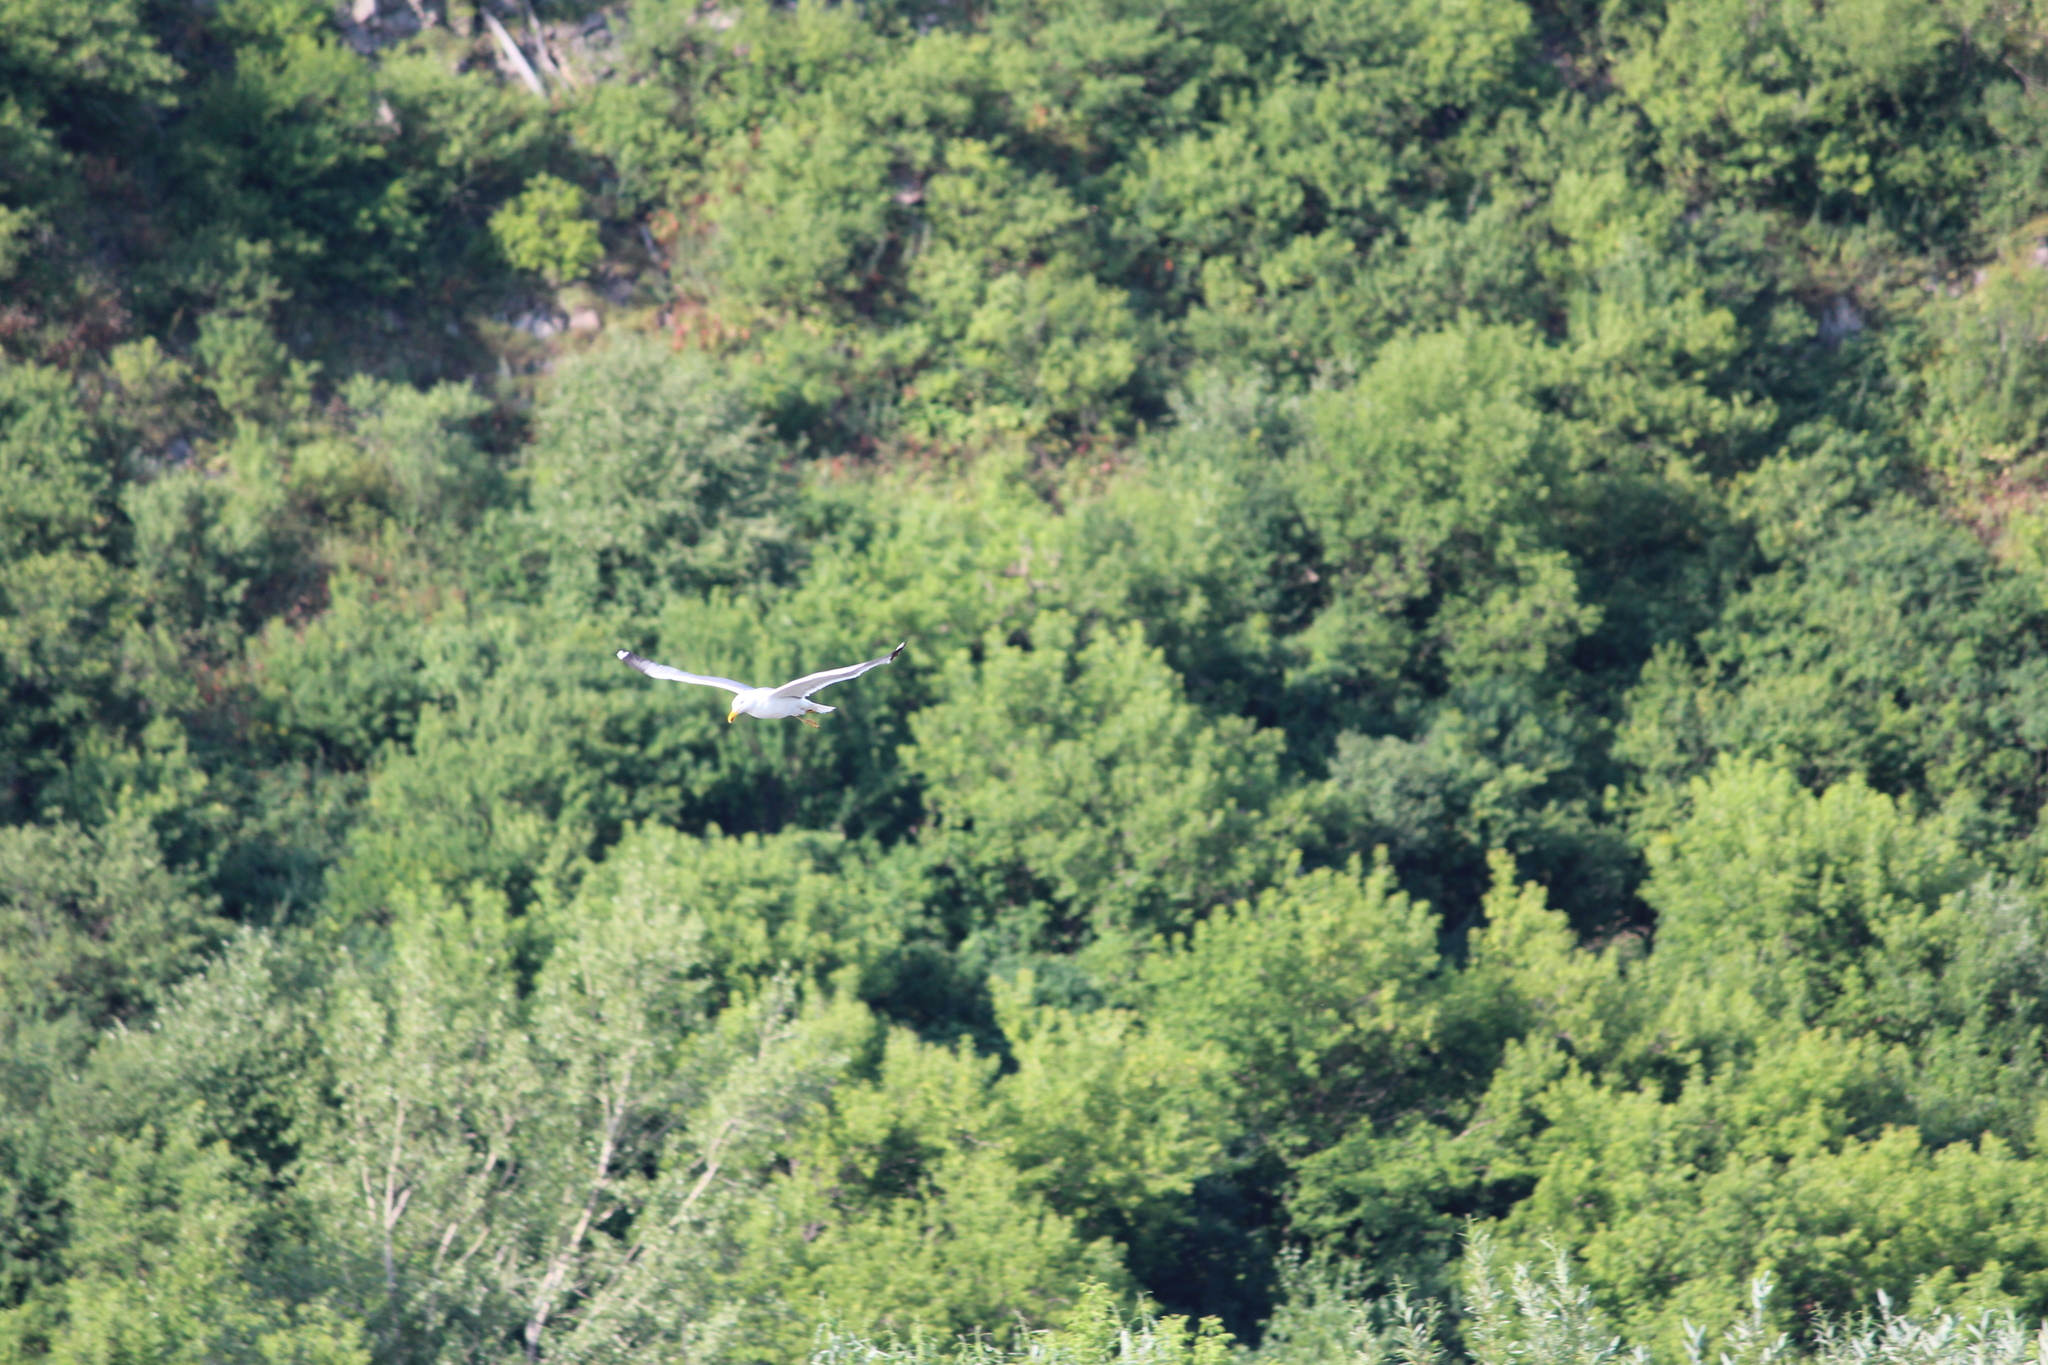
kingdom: Animalia
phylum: Chordata
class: Aves
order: Charadriiformes
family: Laridae
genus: Larus
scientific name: Larus fuscus
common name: Lesser black-backed gull
